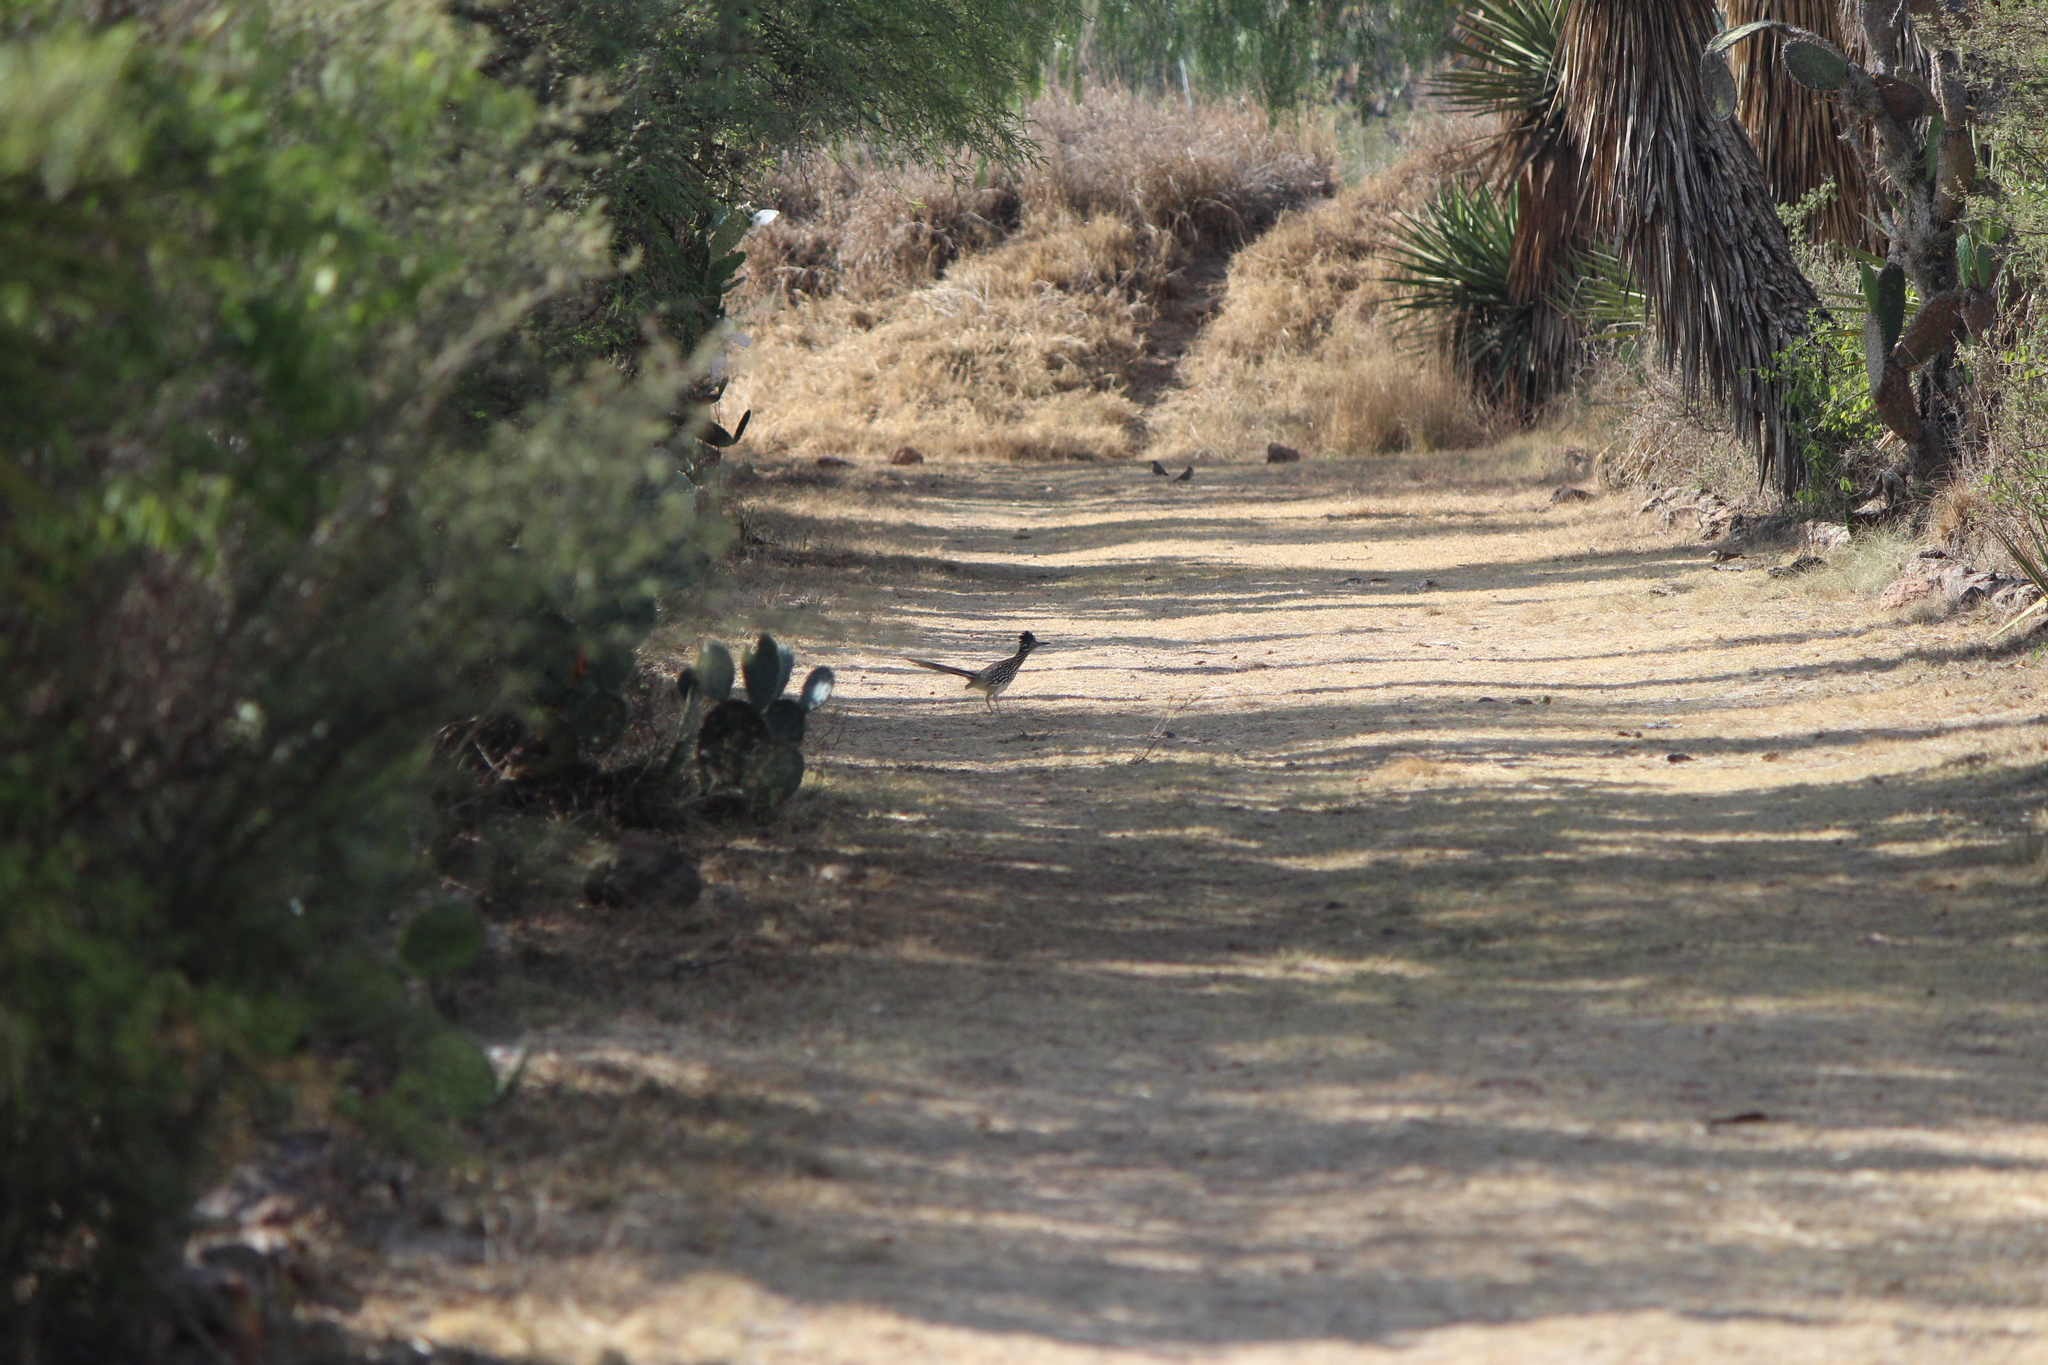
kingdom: Animalia
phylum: Chordata
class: Aves
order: Cuculiformes
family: Cuculidae
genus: Geococcyx
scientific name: Geococcyx californianus
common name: Greater roadrunner
